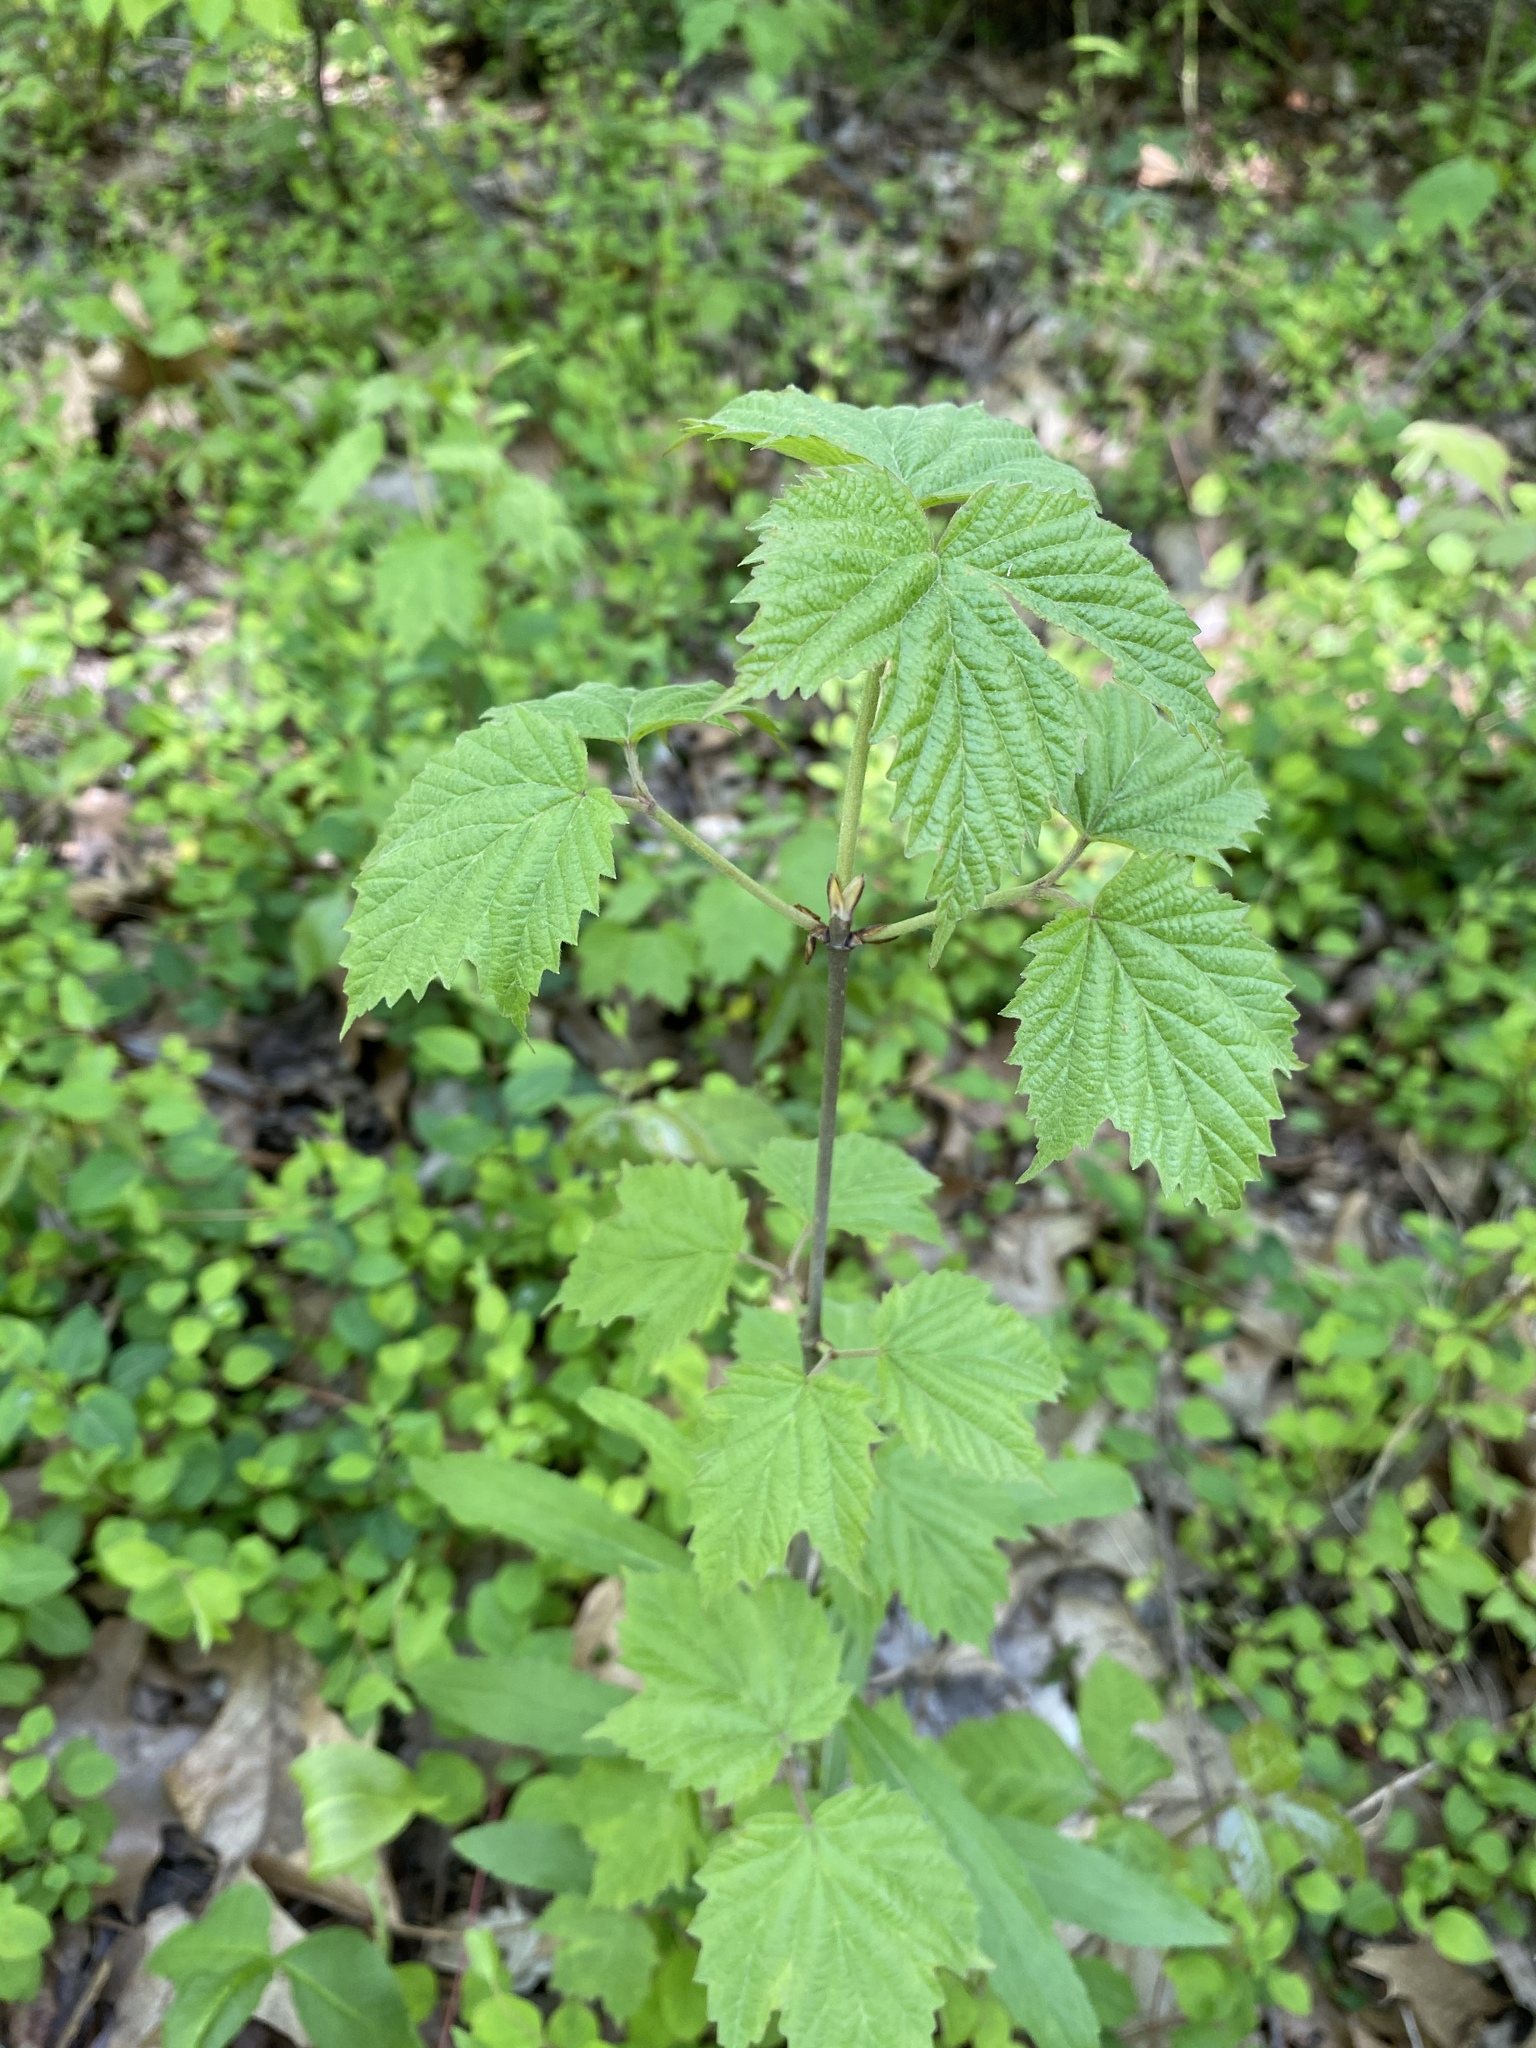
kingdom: Plantae
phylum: Tracheophyta
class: Magnoliopsida
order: Dipsacales
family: Viburnaceae
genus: Viburnum
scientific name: Viburnum acerifolium
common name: Dockmackie
